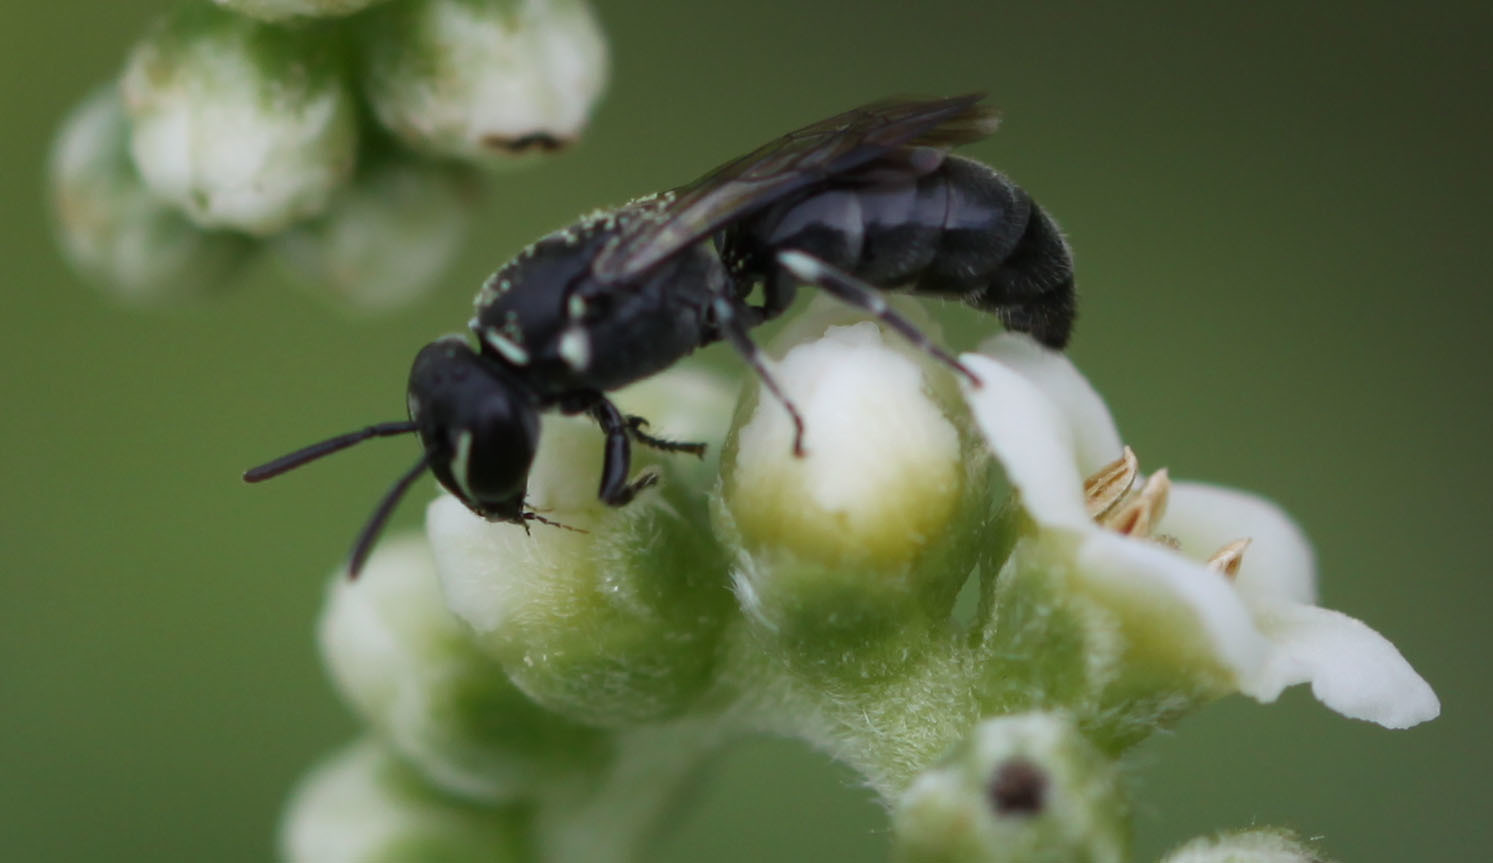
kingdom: Animalia
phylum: Arthropoda
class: Insecta
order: Hymenoptera
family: Colletidae
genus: Hylaeus
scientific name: Hylaeus strenuus
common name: Plasterer bee
